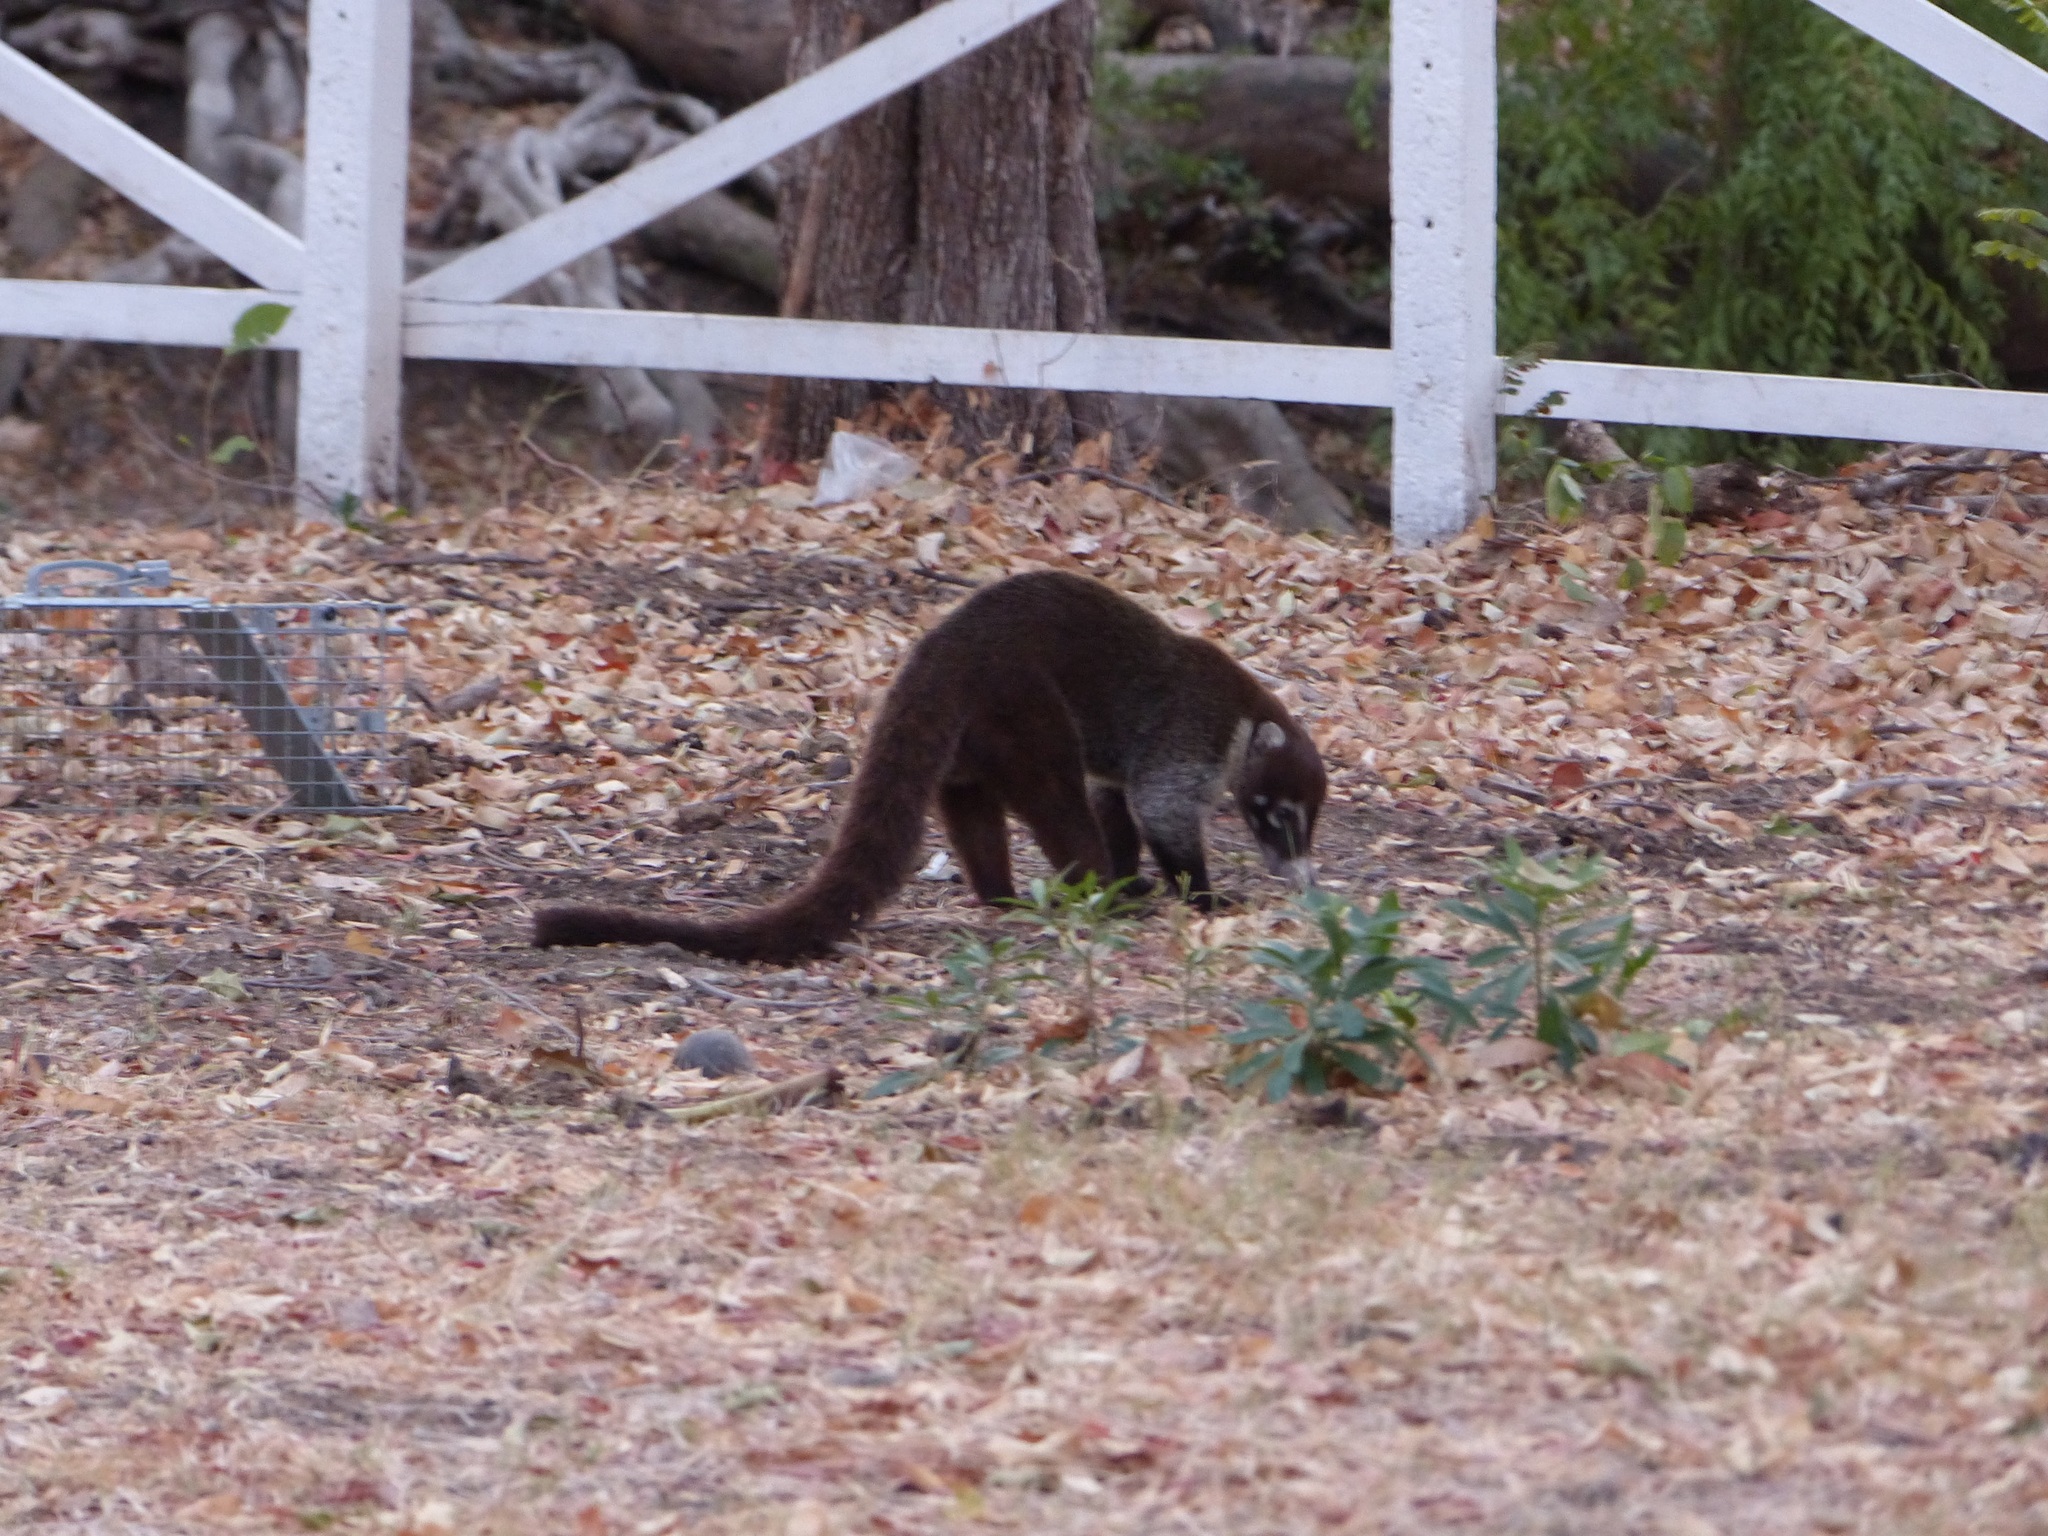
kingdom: Animalia
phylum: Chordata
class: Mammalia
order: Carnivora
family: Procyonidae
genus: Nasua
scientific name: Nasua narica
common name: White-nosed coati
